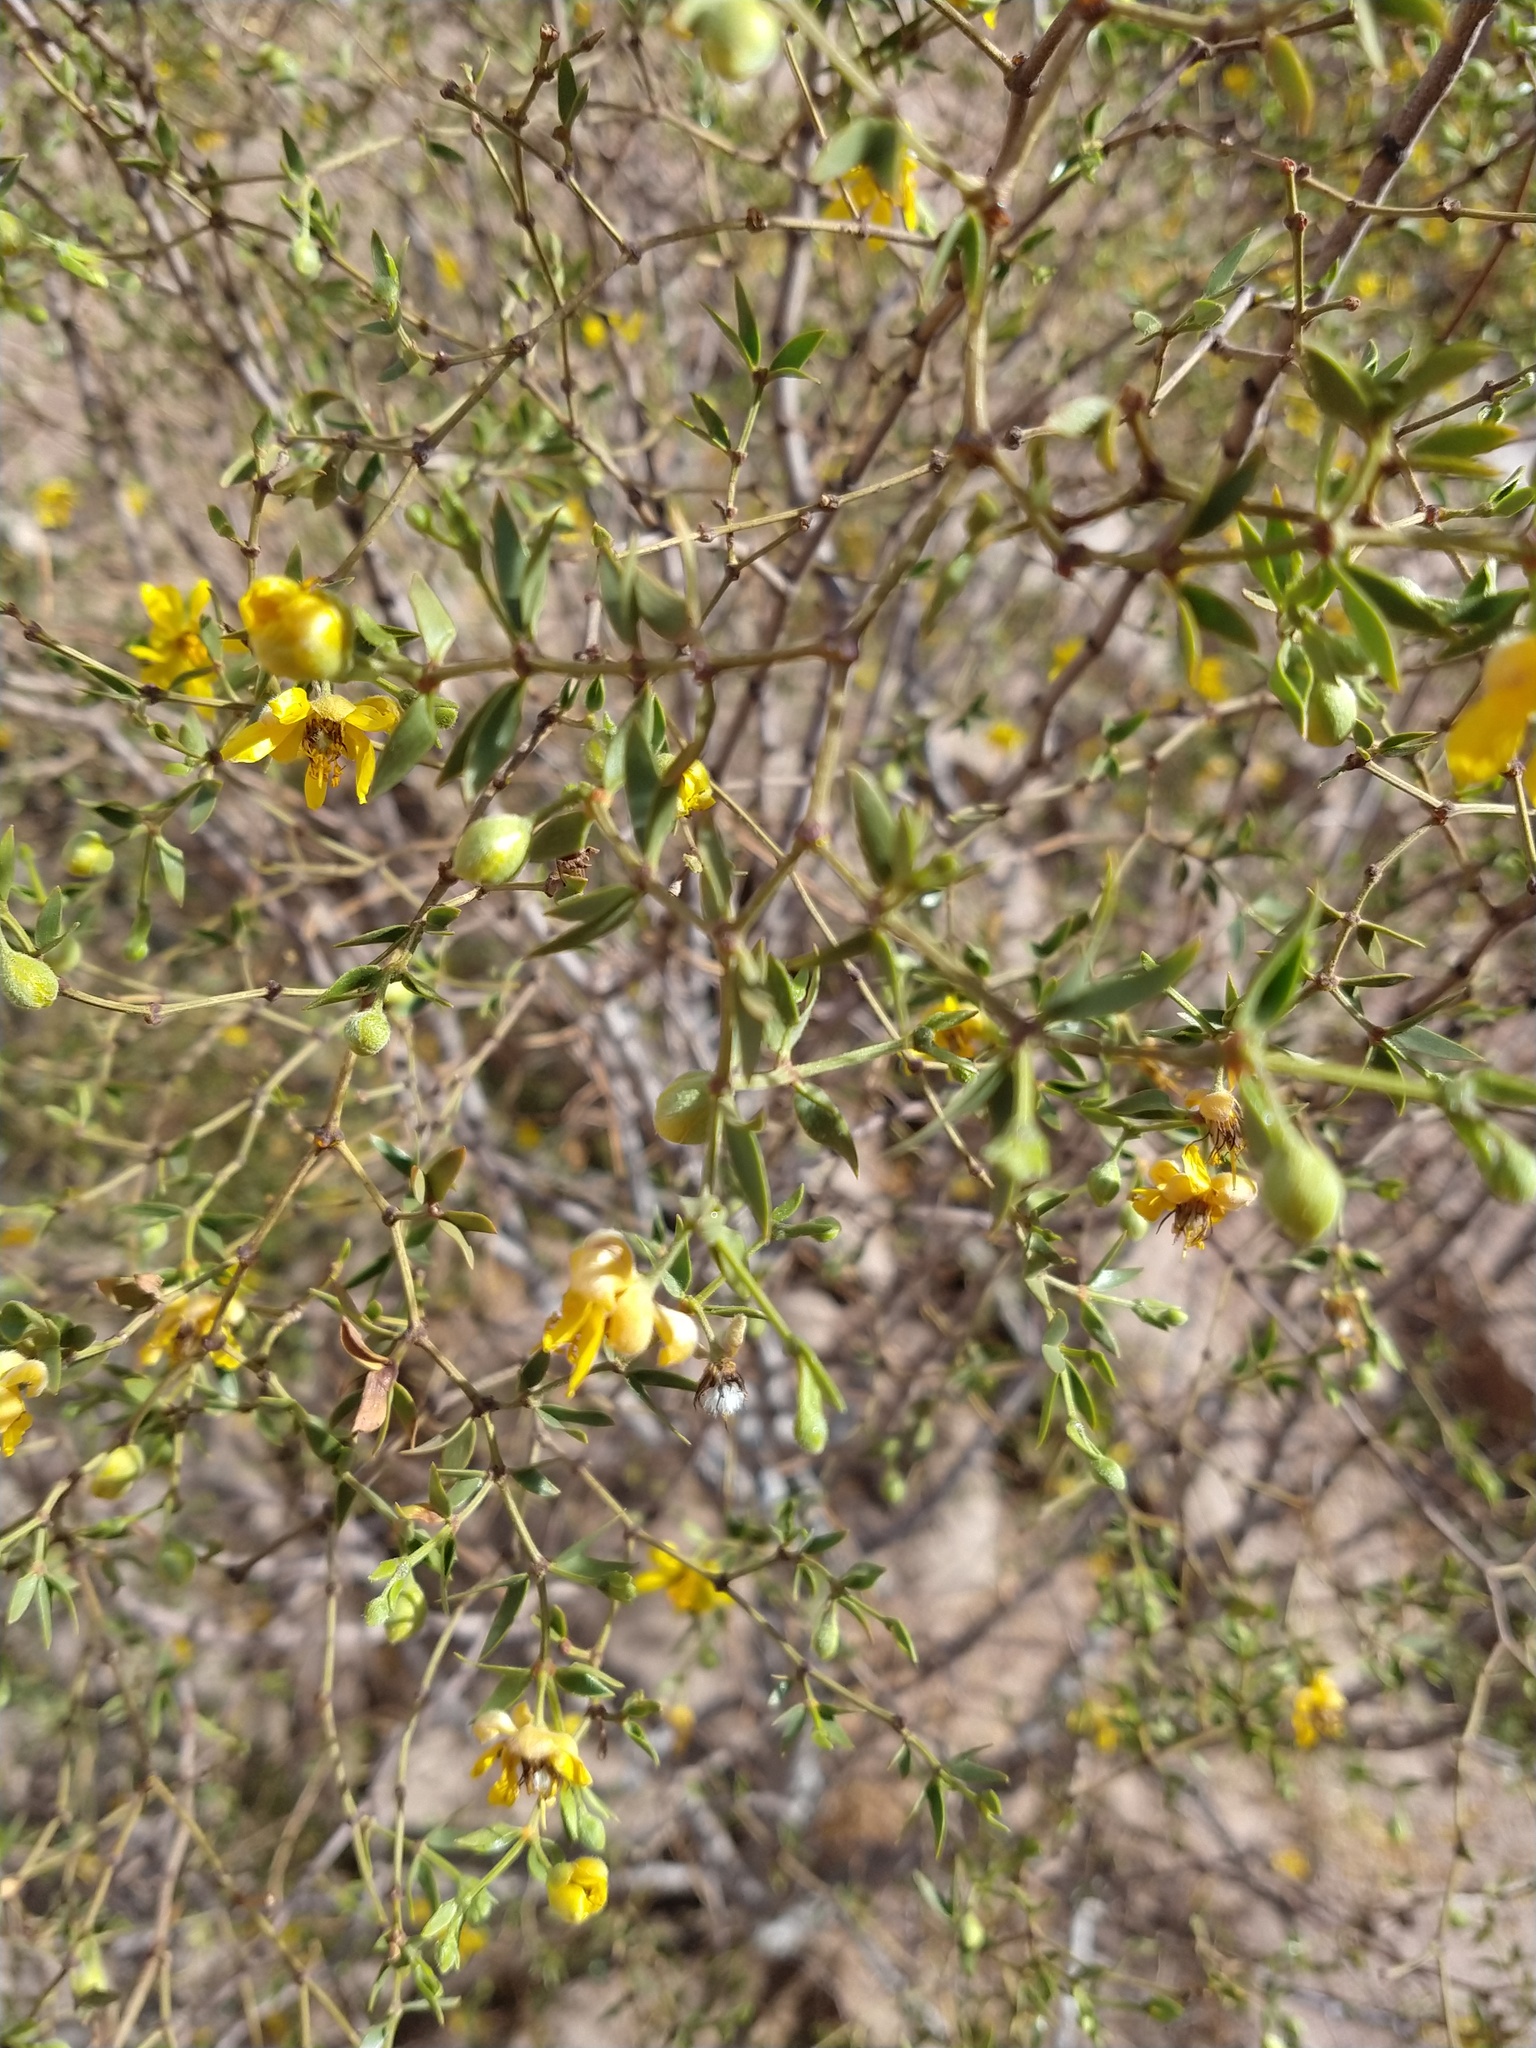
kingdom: Plantae
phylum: Tracheophyta
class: Magnoliopsida
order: Zygophyllales
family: Zygophyllaceae
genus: Larrea
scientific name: Larrea divaricata
